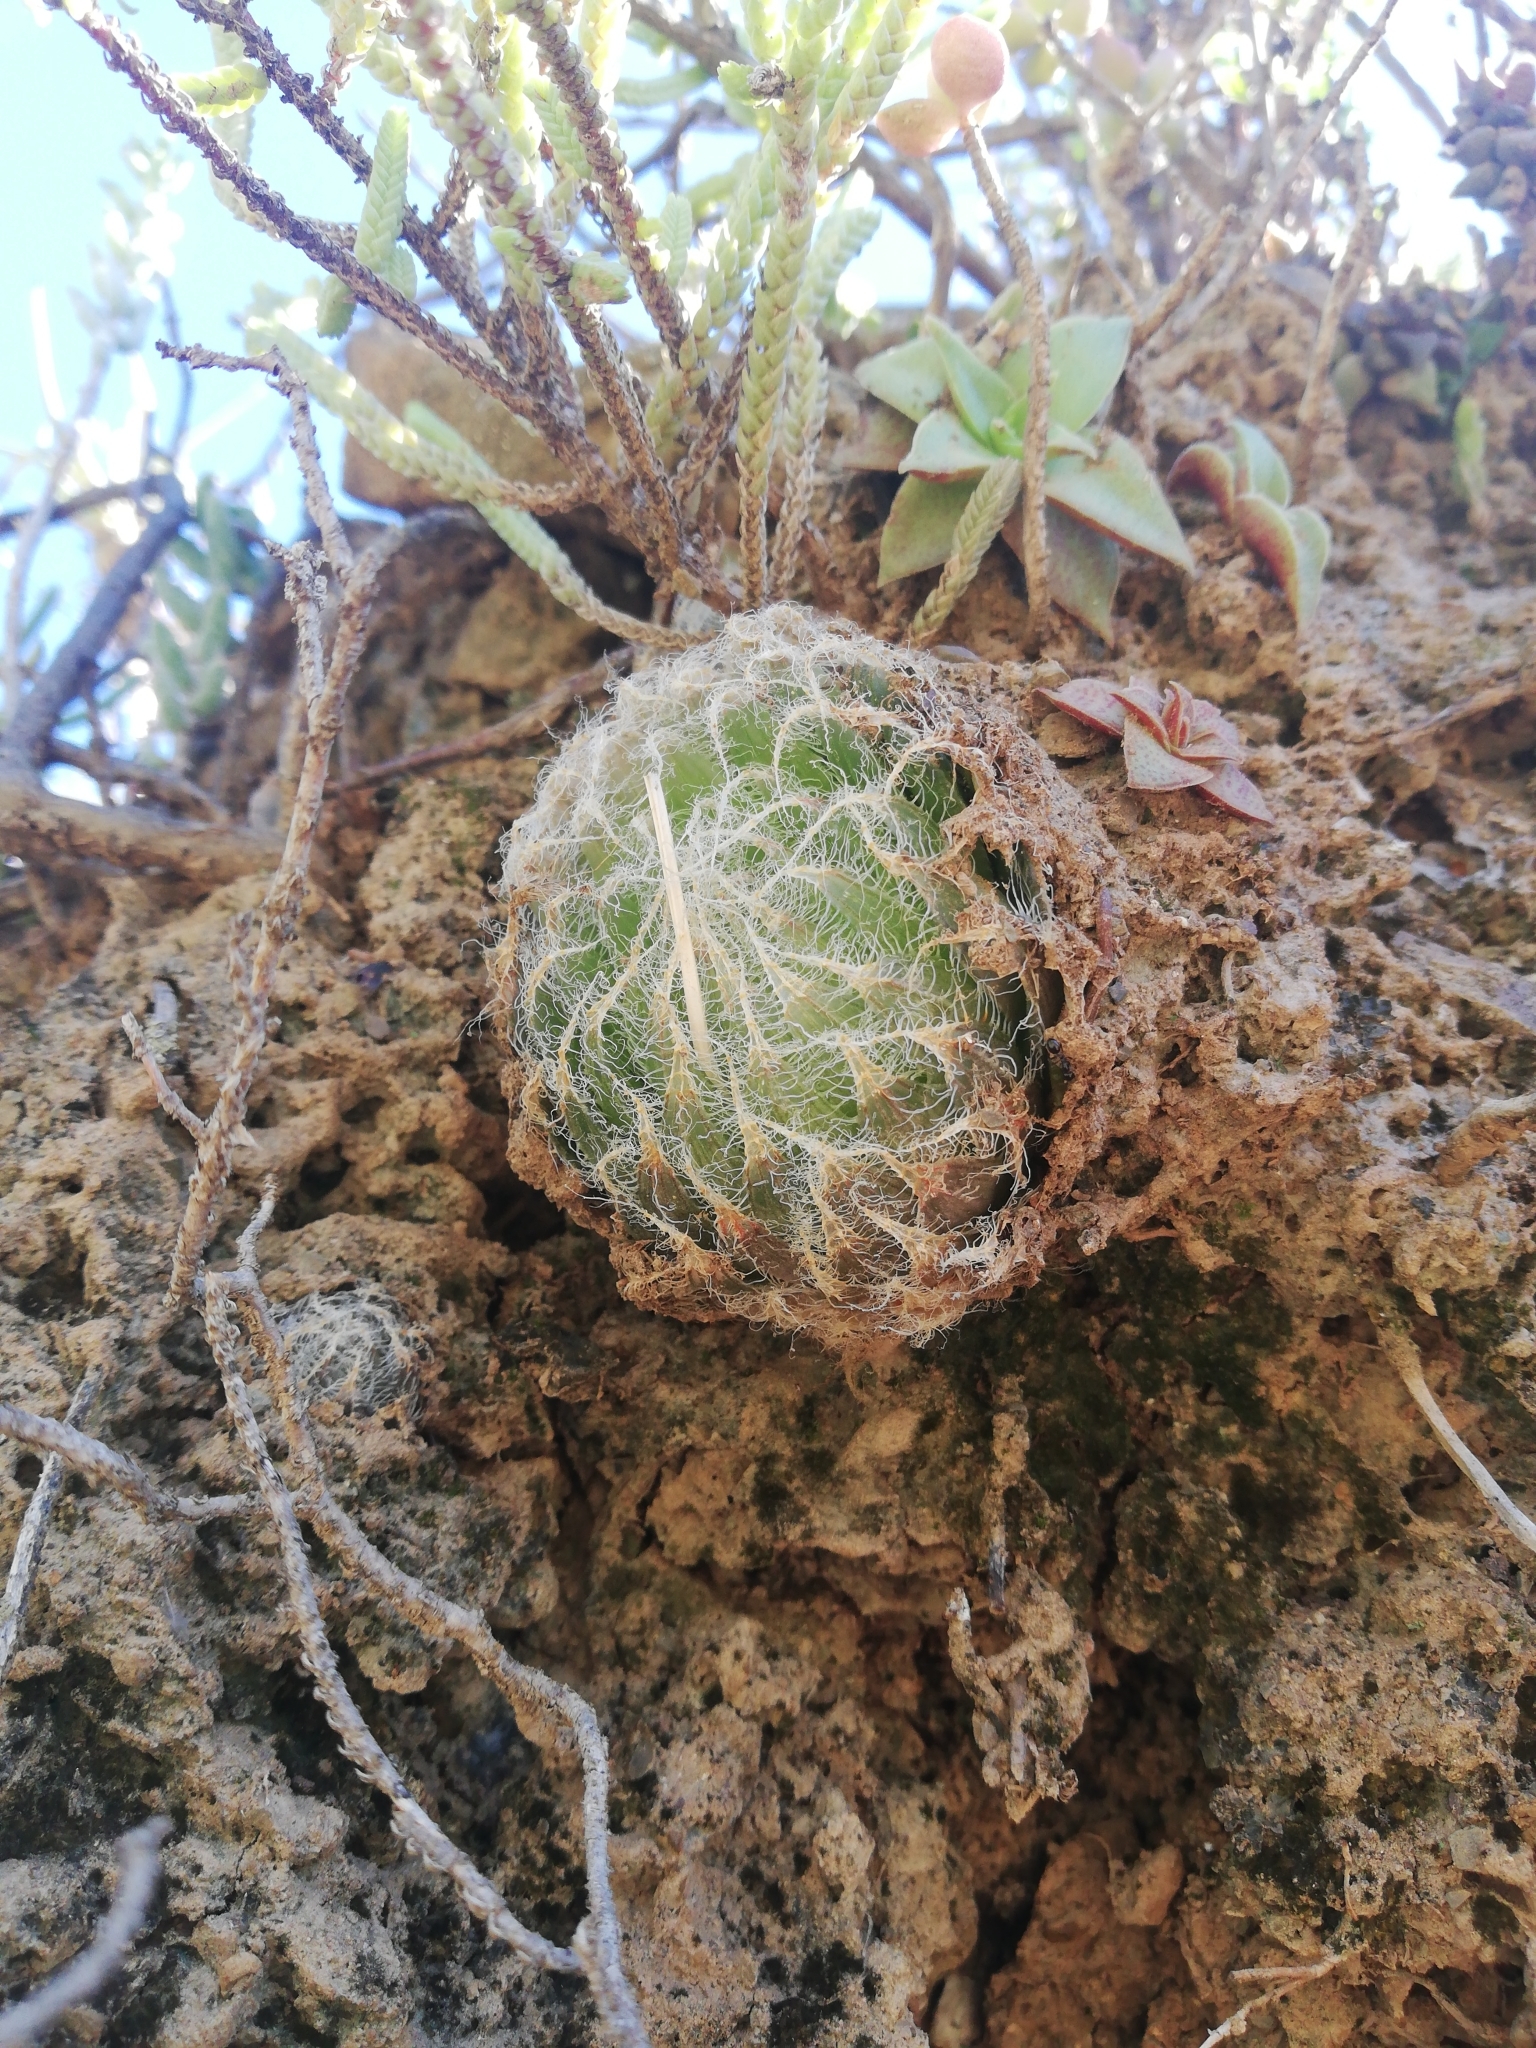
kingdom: Plantae
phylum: Tracheophyta
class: Liliopsida
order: Asparagales
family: Asphodelaceae
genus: Haworthia
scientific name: Haworthia bolusii
